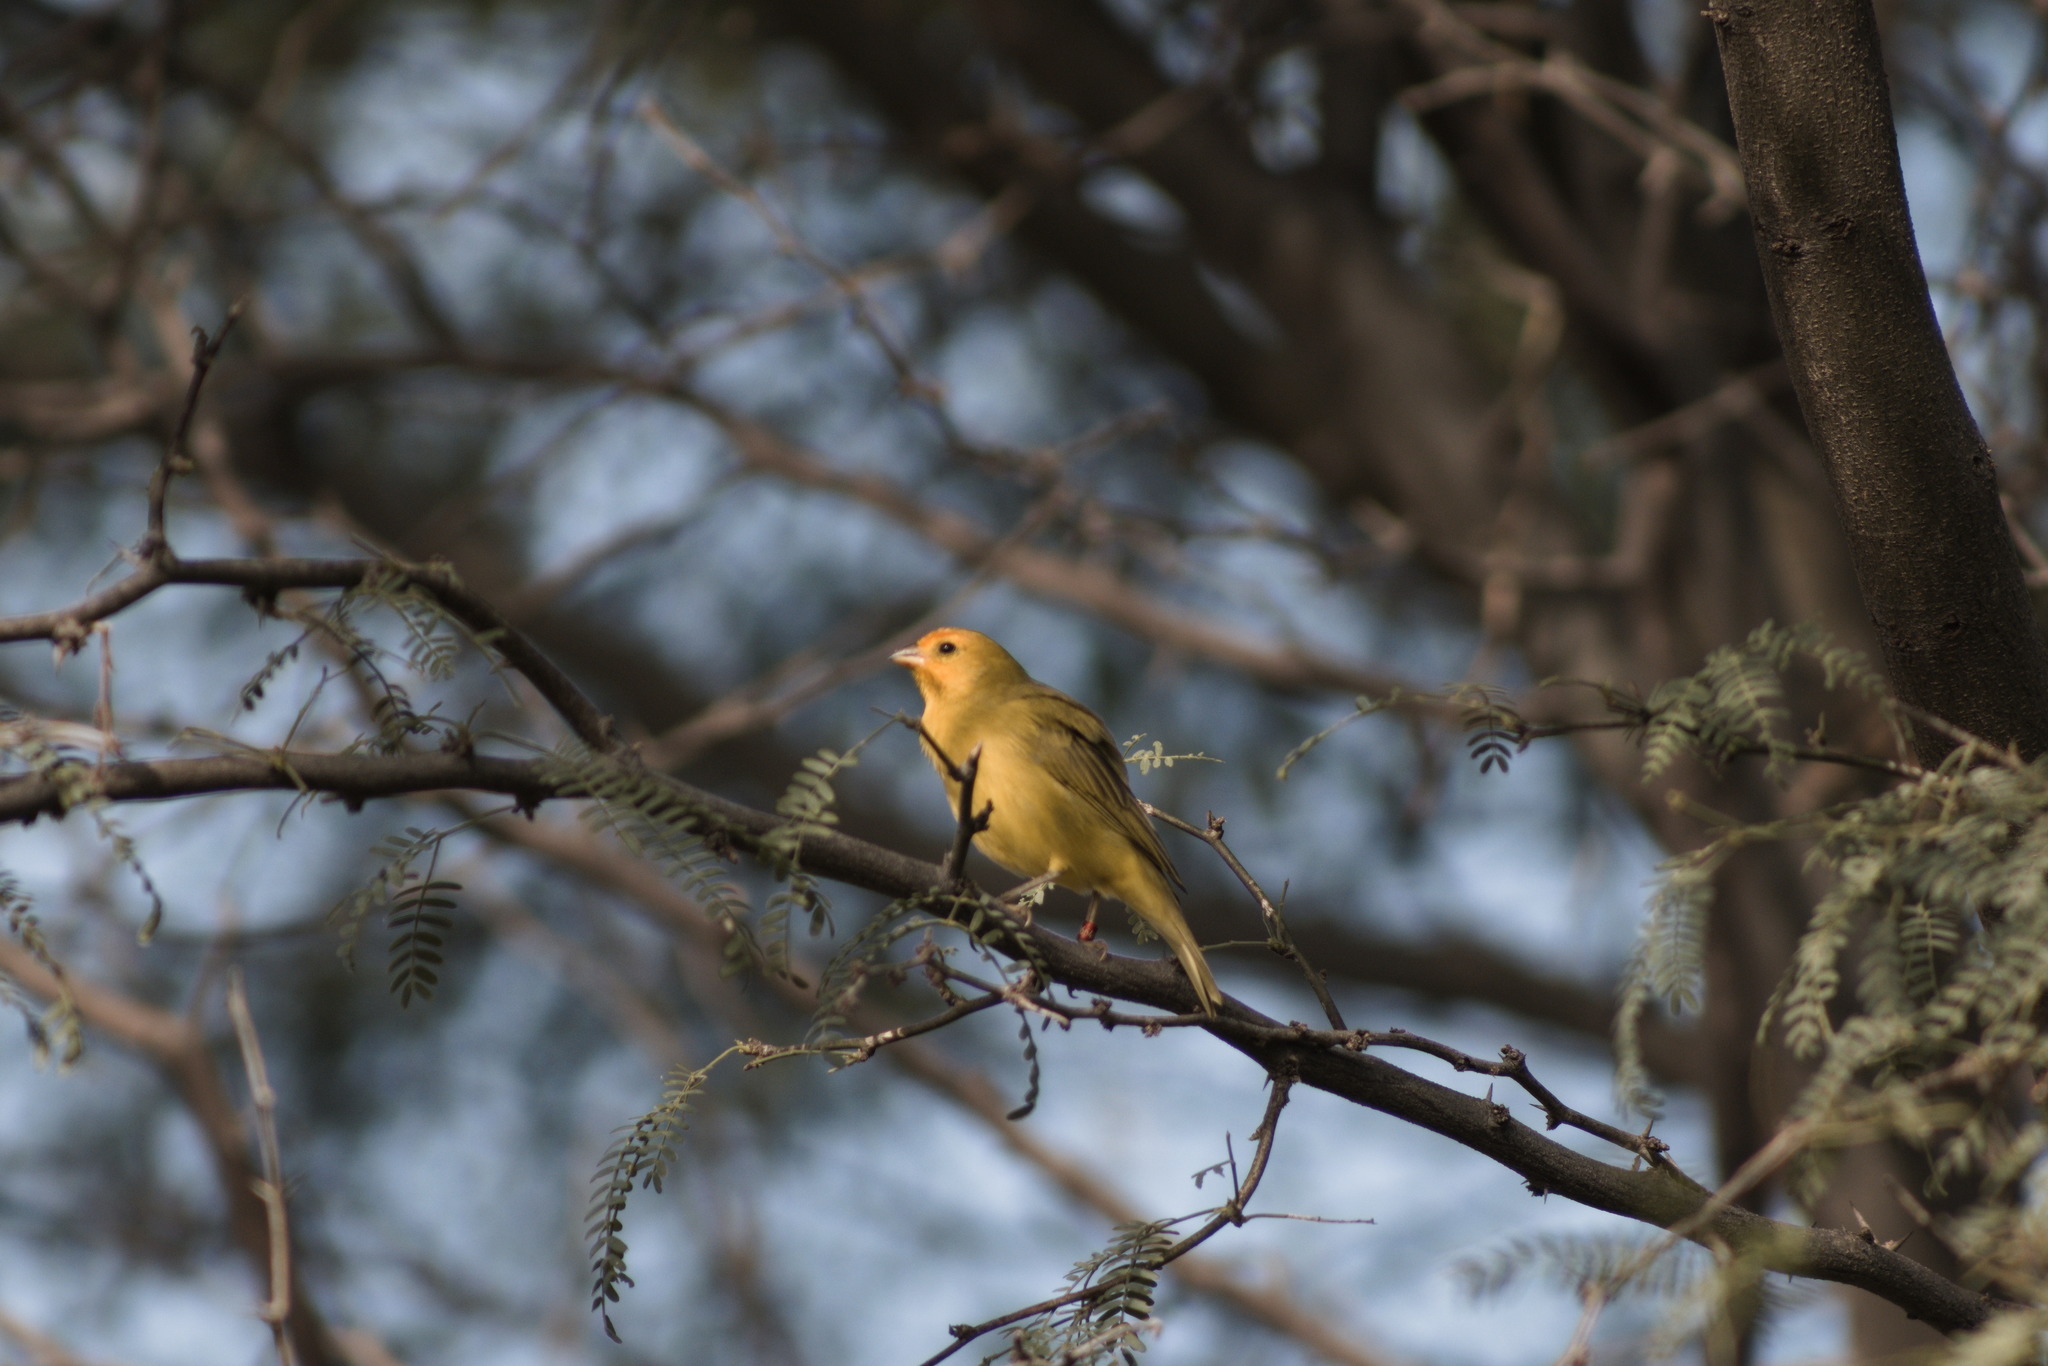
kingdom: Animalia
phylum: Chordata
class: Aves
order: Passeriformes
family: Thraupidae
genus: Sicalis
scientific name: Sicalis flaveola
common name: Saffron finch
